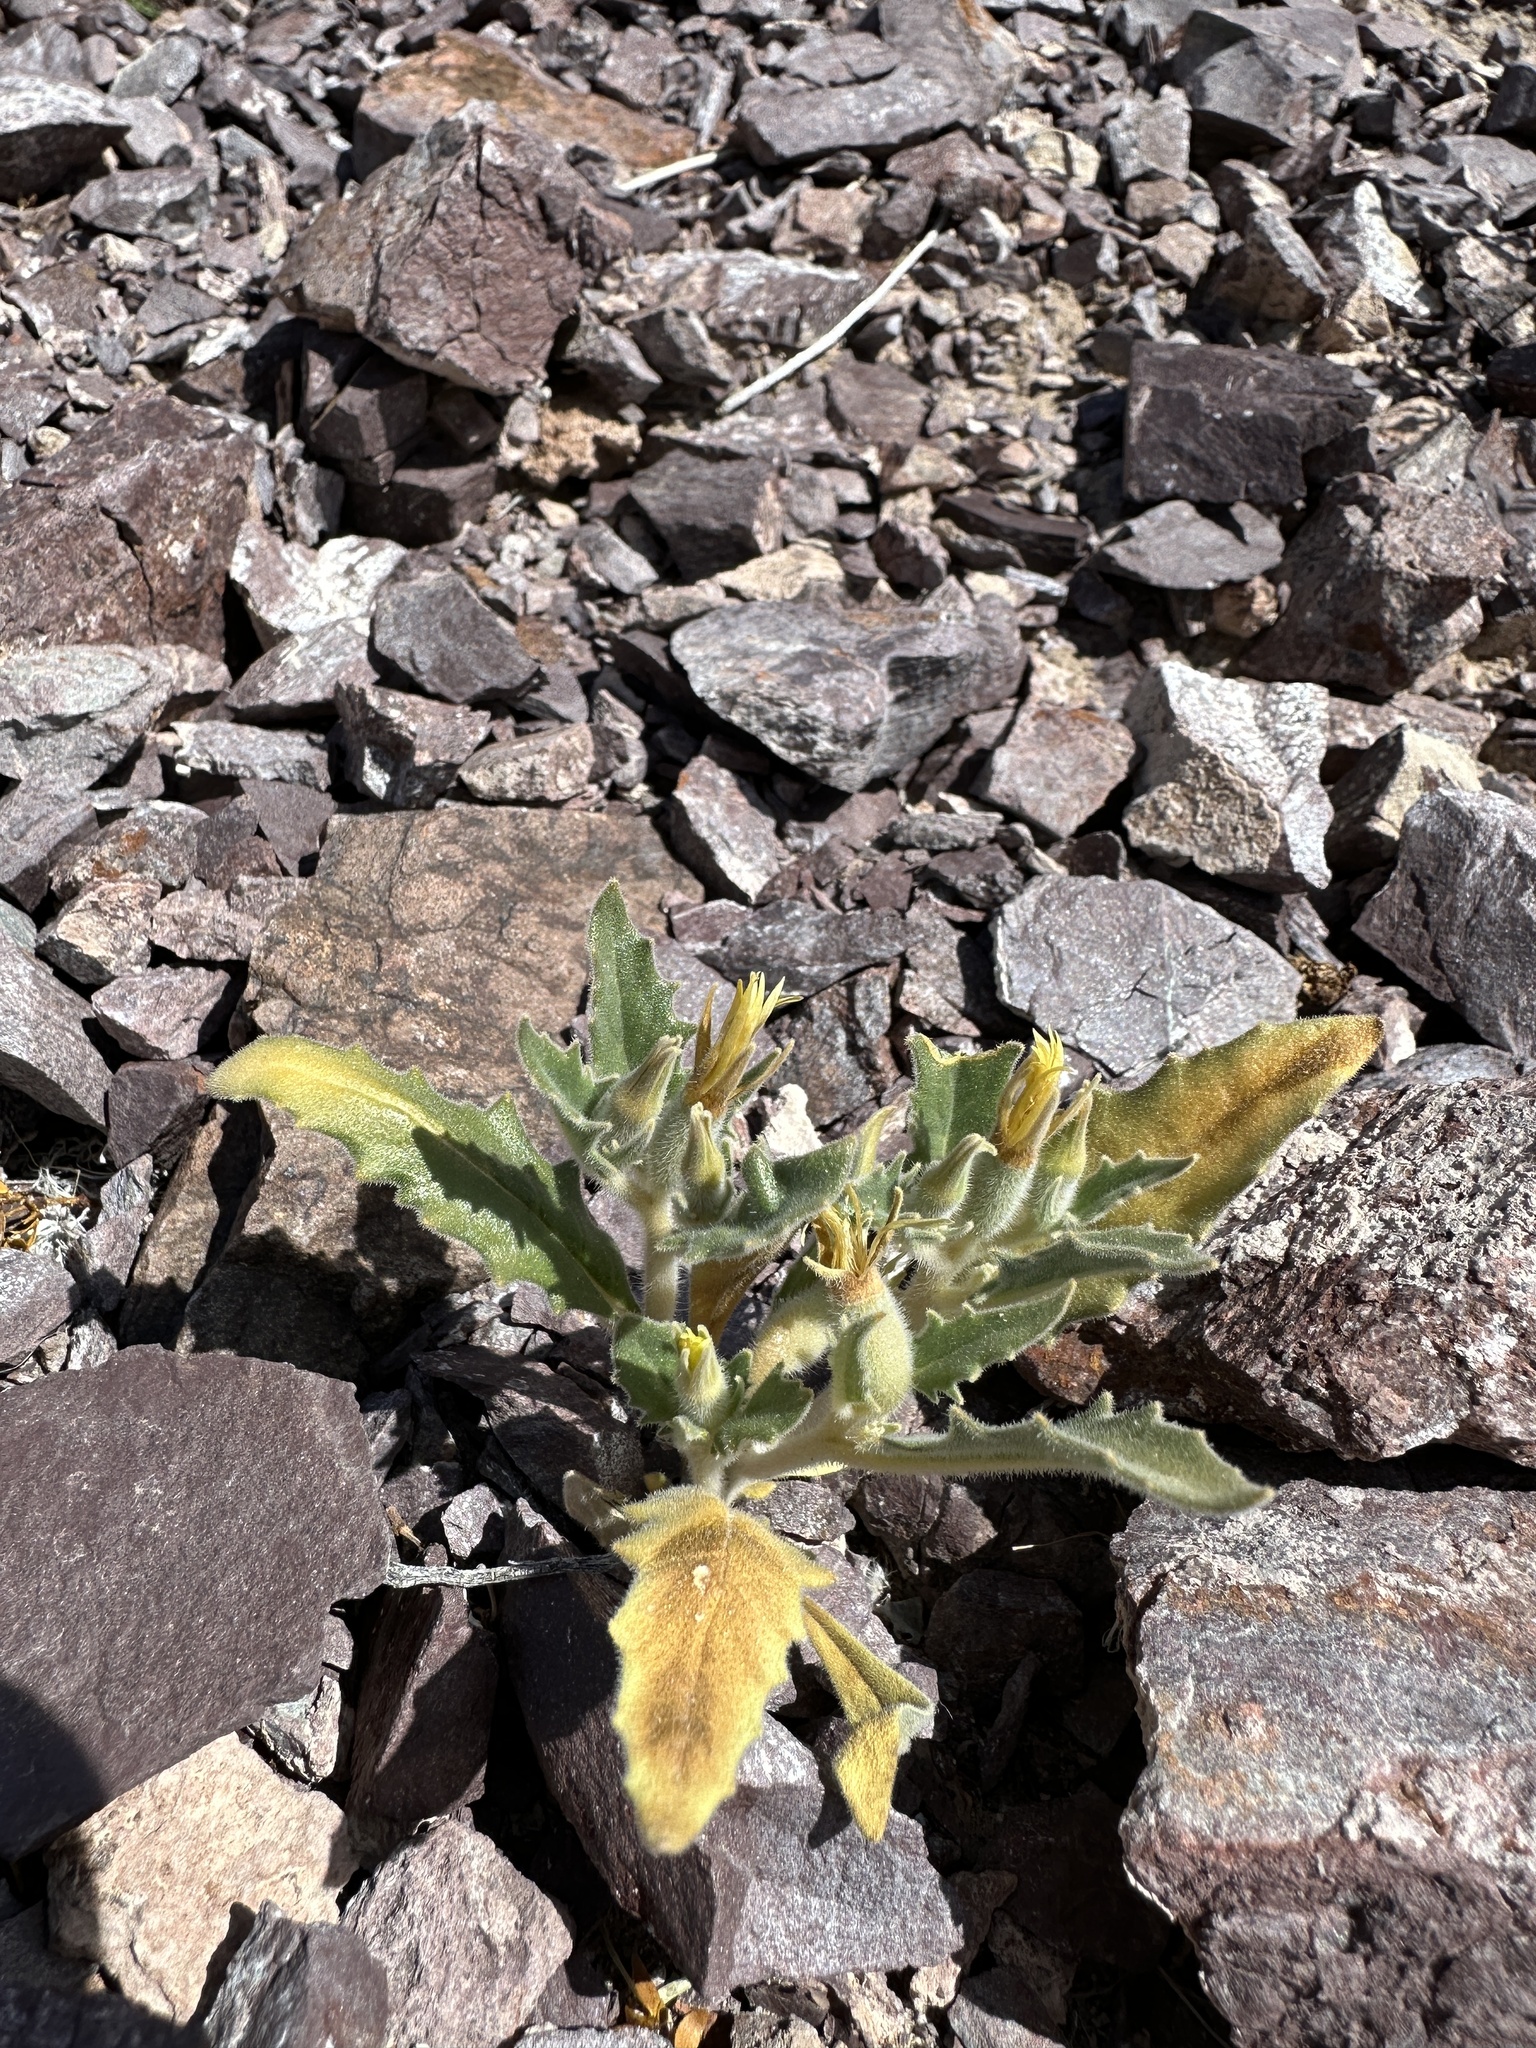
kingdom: Plantae
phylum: Tracheophyta
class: Magnoliopsida
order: Cornales
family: Loasaceae
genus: Mentzelia
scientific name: Mentzelia reflexa
